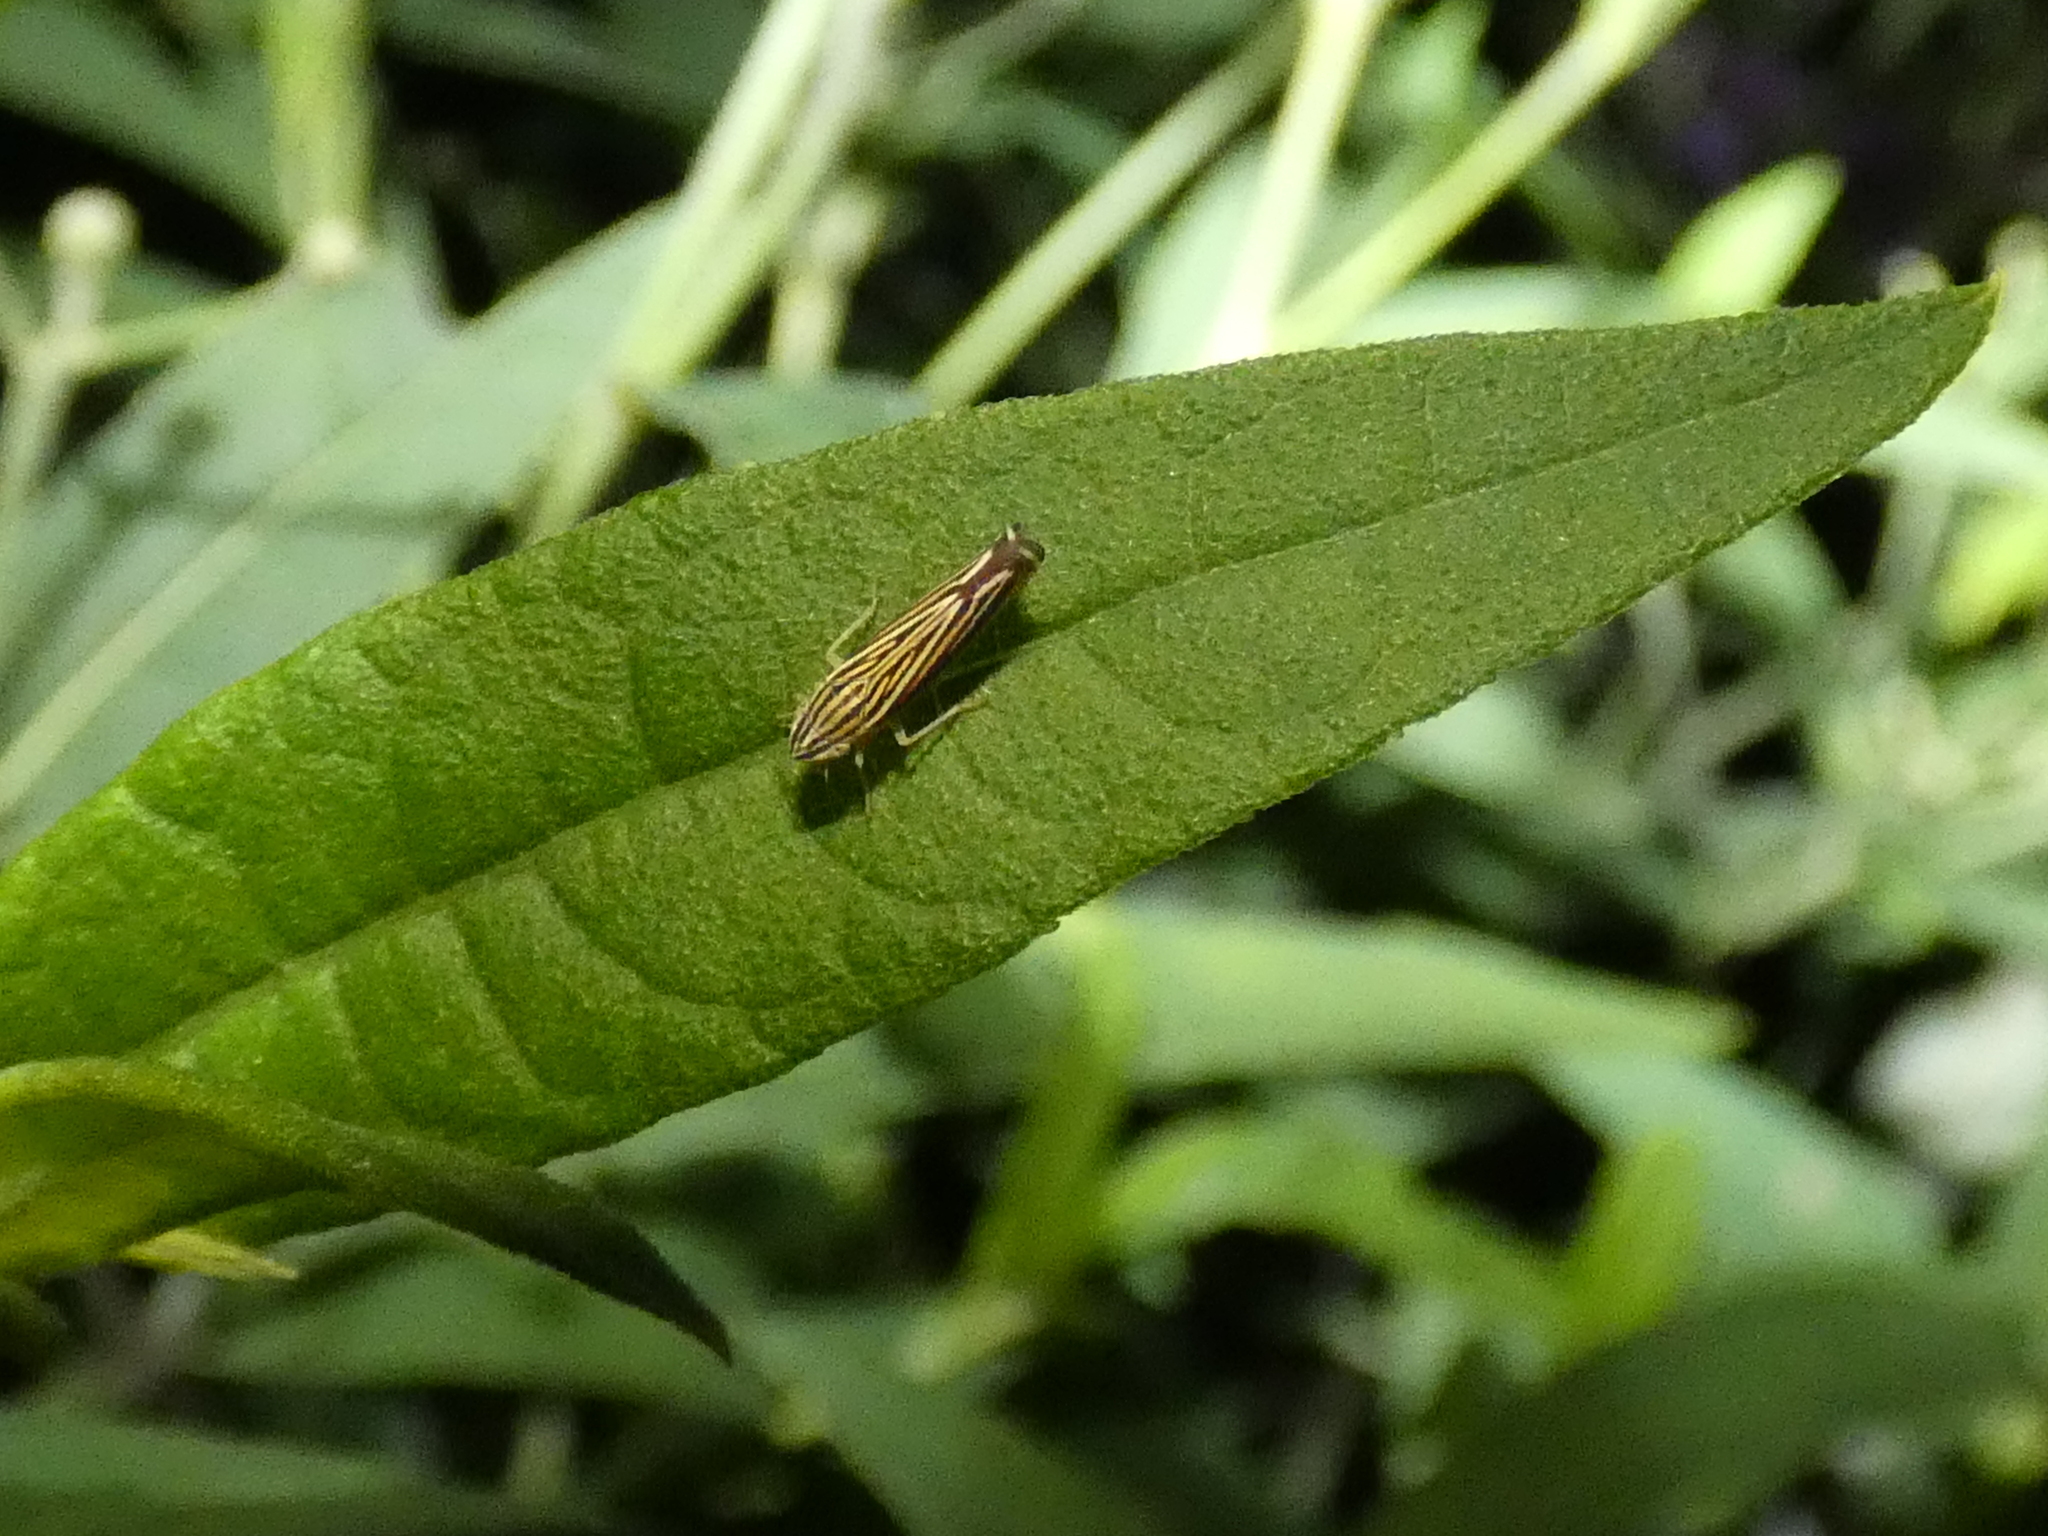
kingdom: Animalia
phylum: Arthropoda
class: Insecta
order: Hemiptera
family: Cicadellidae
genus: Sibovia
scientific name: Sibovia occatoria
